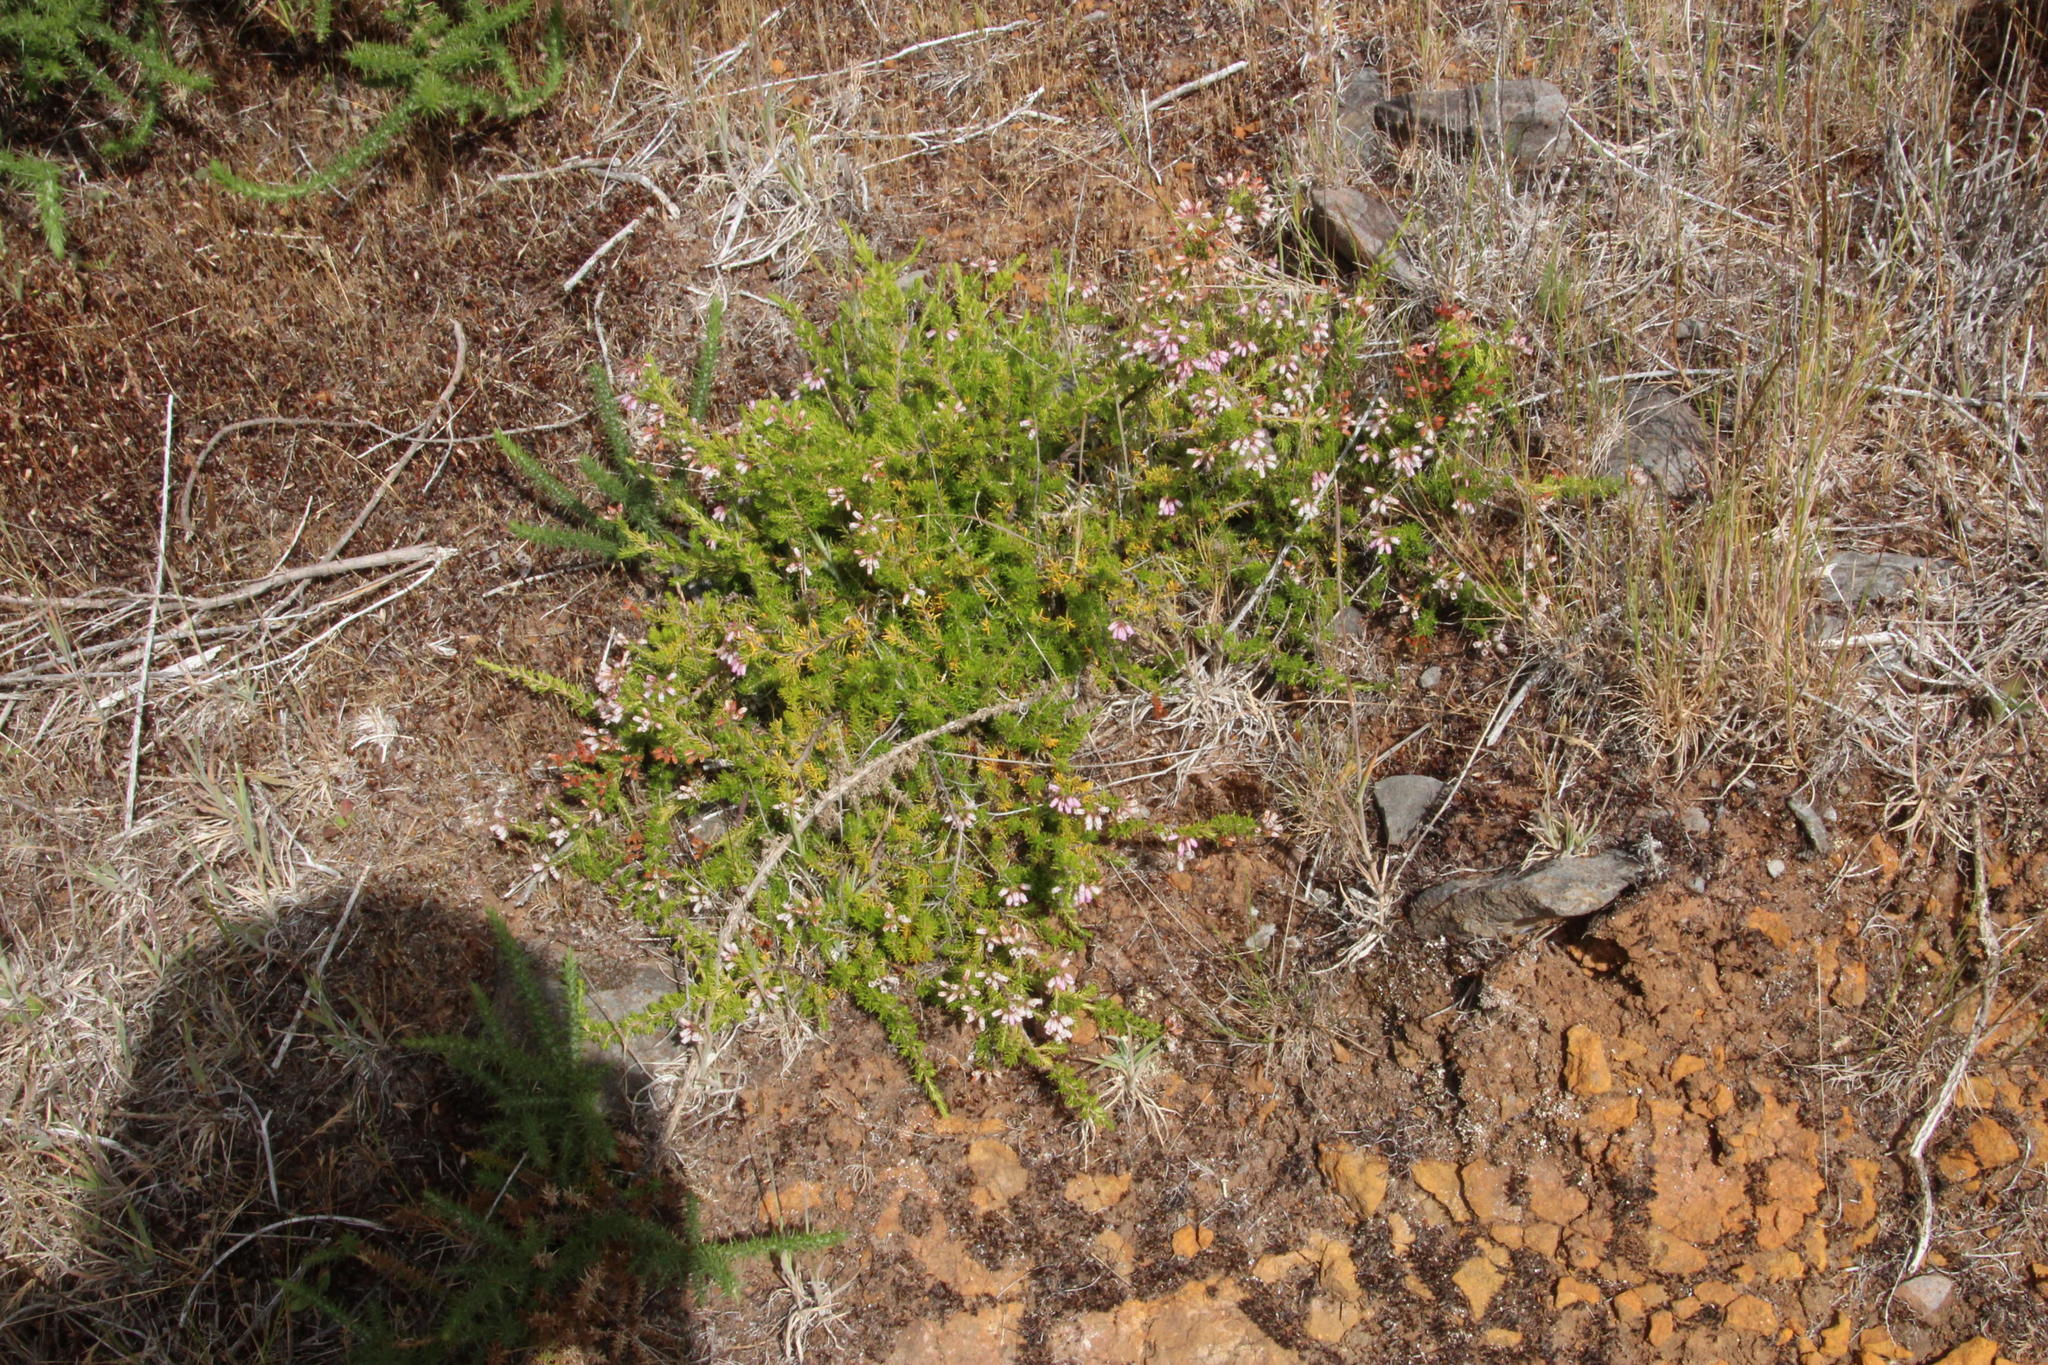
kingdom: Plantae
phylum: Tracheophyta
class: Magnoliopsida
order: Ericales
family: Ericaceae
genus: Erica
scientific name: Erica maderensis
